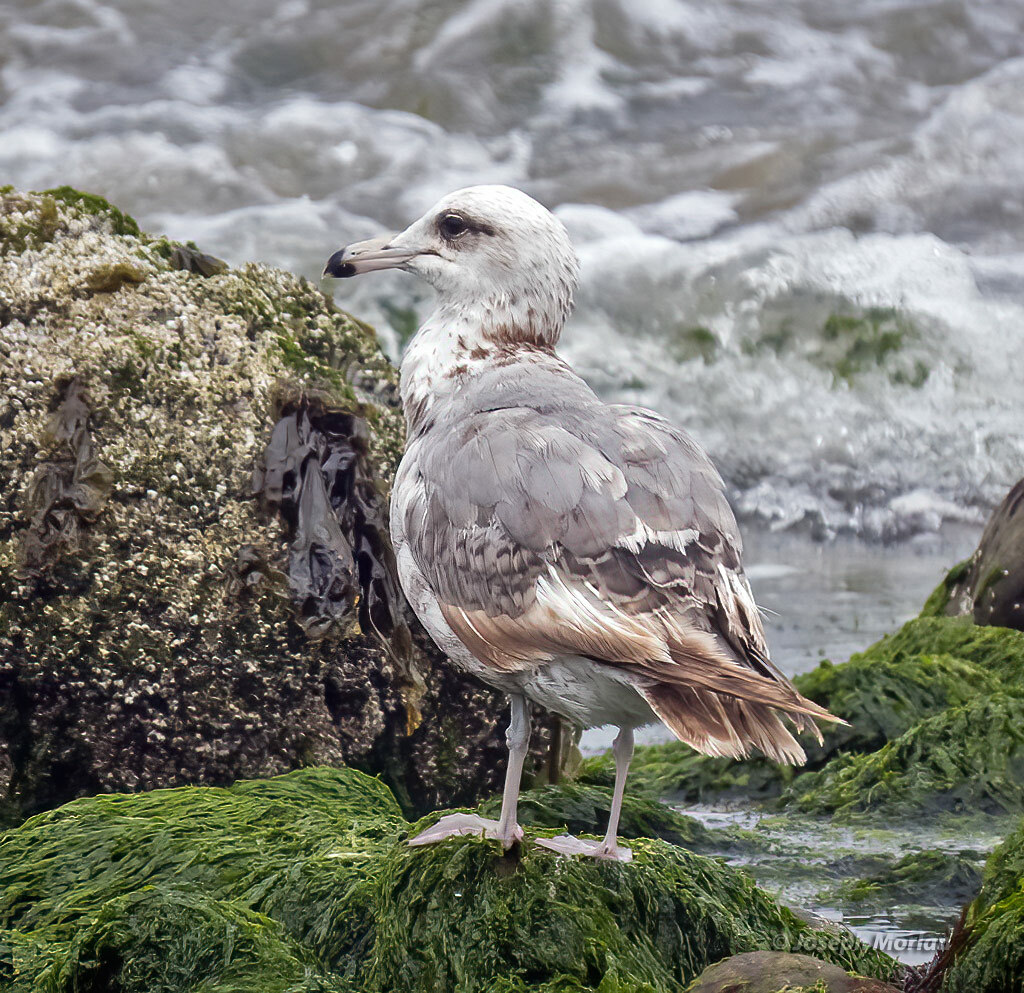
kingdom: Animalia
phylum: Chordata
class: Aves
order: Charadriiformes
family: Laridae
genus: Larus
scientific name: Larus californicus
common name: California gull
